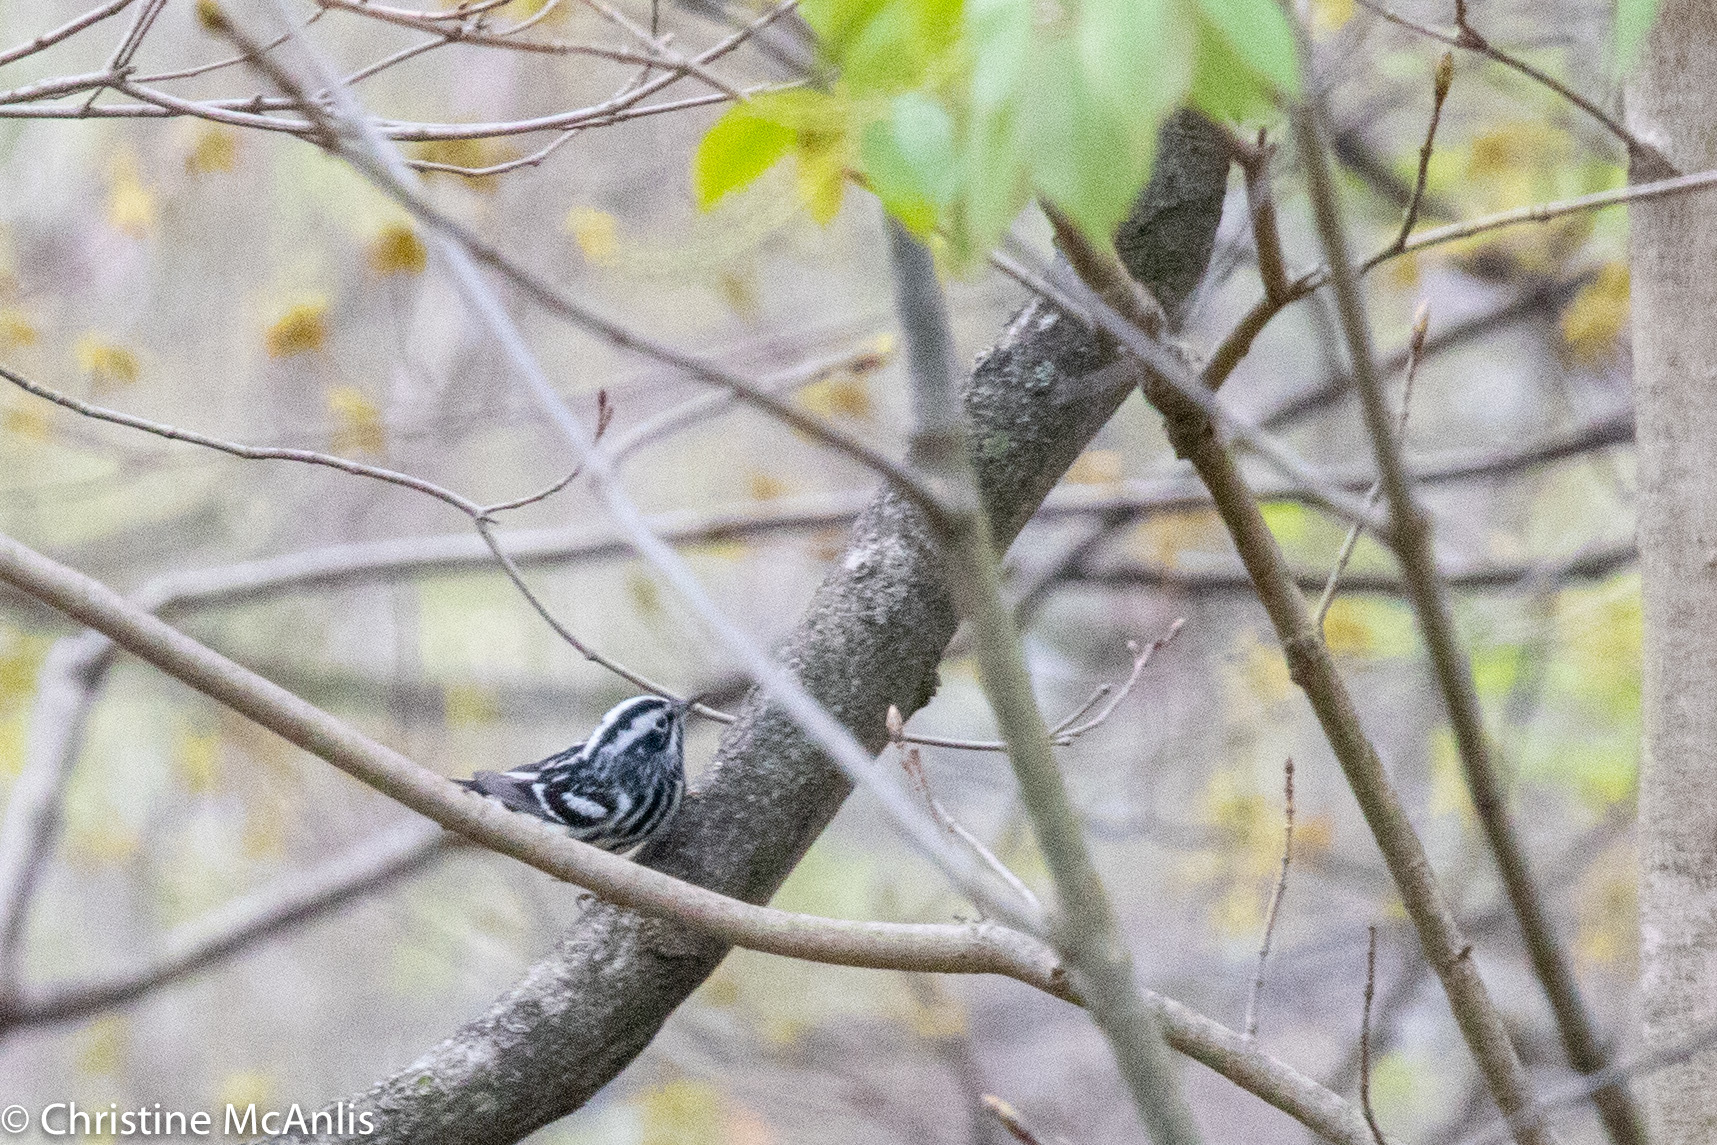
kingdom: Animalia
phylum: Chordata
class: Aves
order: Passeriformes
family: Parulidae
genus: Mniotilta
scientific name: Mniotilta varia
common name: Black-and-white warbler
